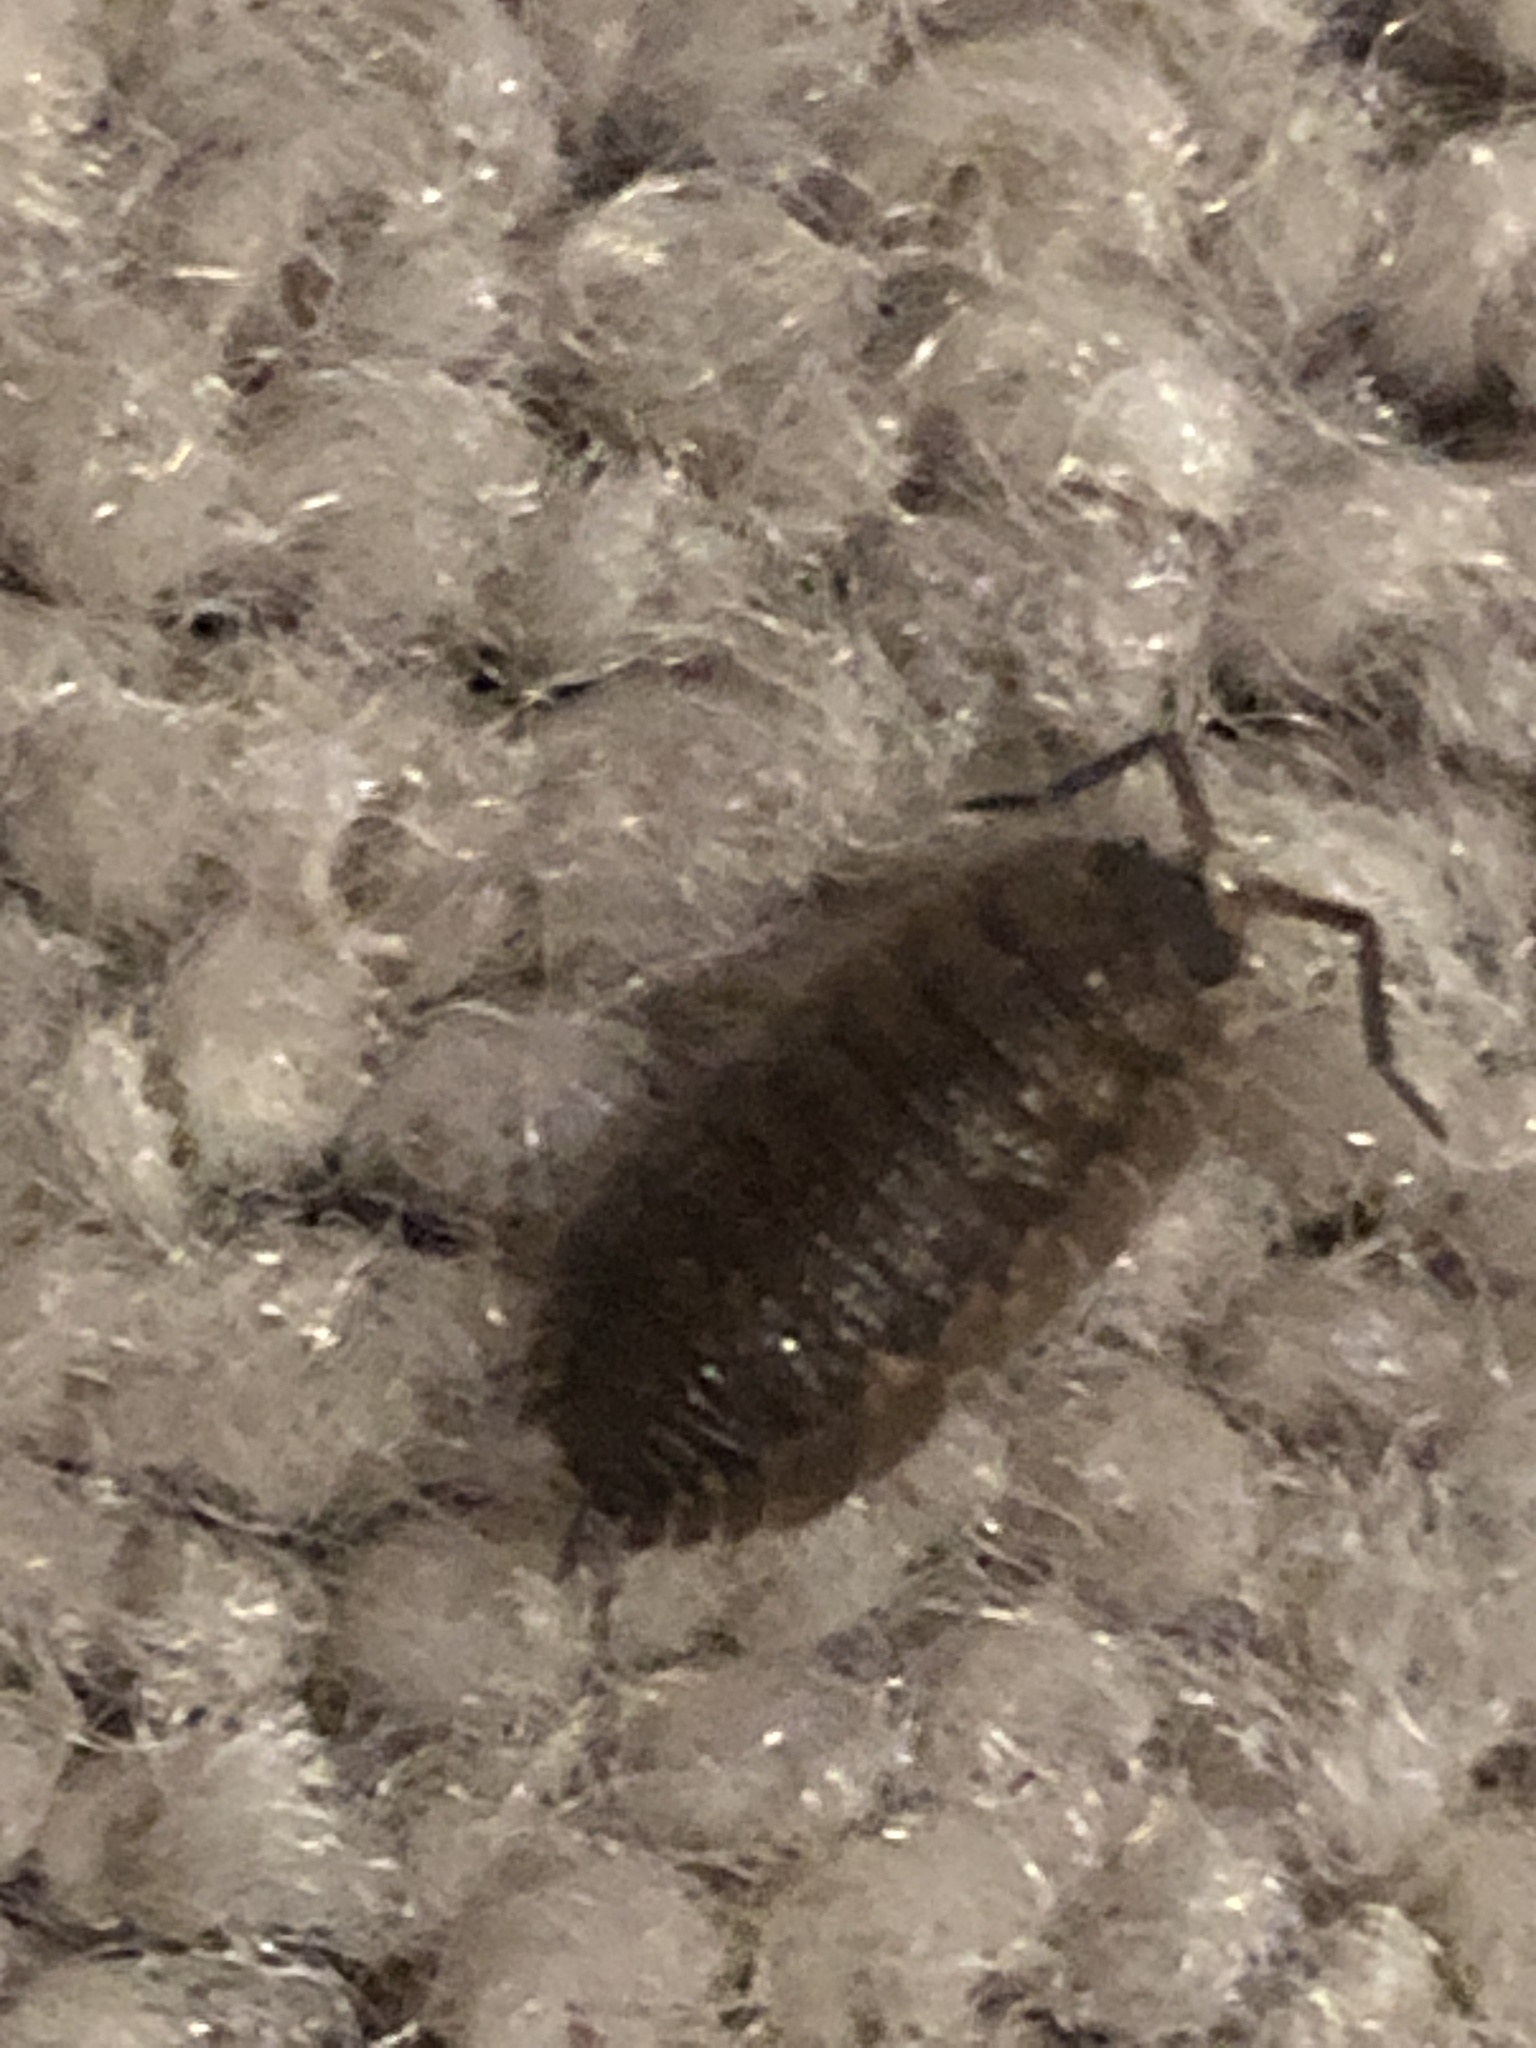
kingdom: Animalia
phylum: Arthropoda
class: Malacostraca
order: Isopoda
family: Porcellionidae
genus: Porcellio
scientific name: Porcellio scaber
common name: Common rough woodlouse
